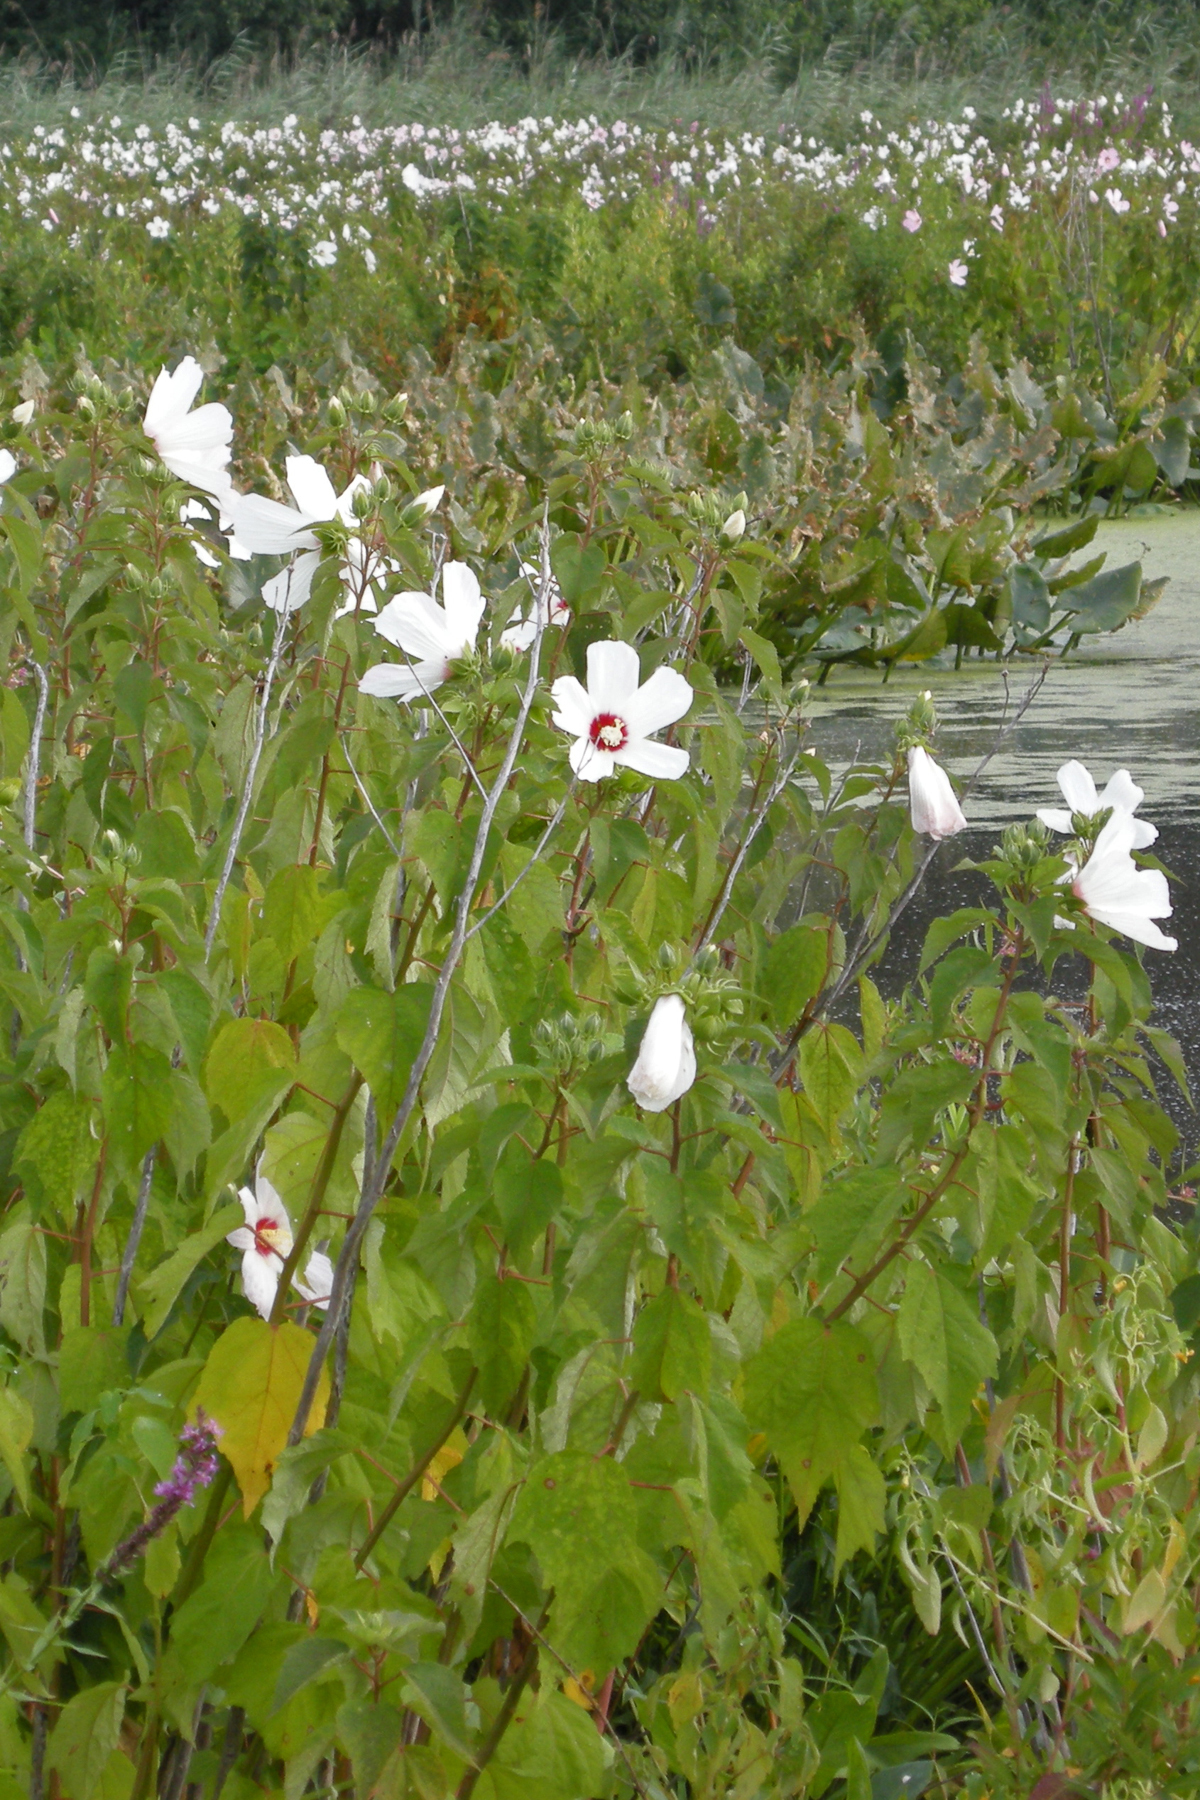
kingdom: Plantae
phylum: Tracheophyta
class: Magnoliopsida
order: Malvales
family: Malvaceae
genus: Hibiscus
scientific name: Hibiscus moscheutos
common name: Common rose-mallow
